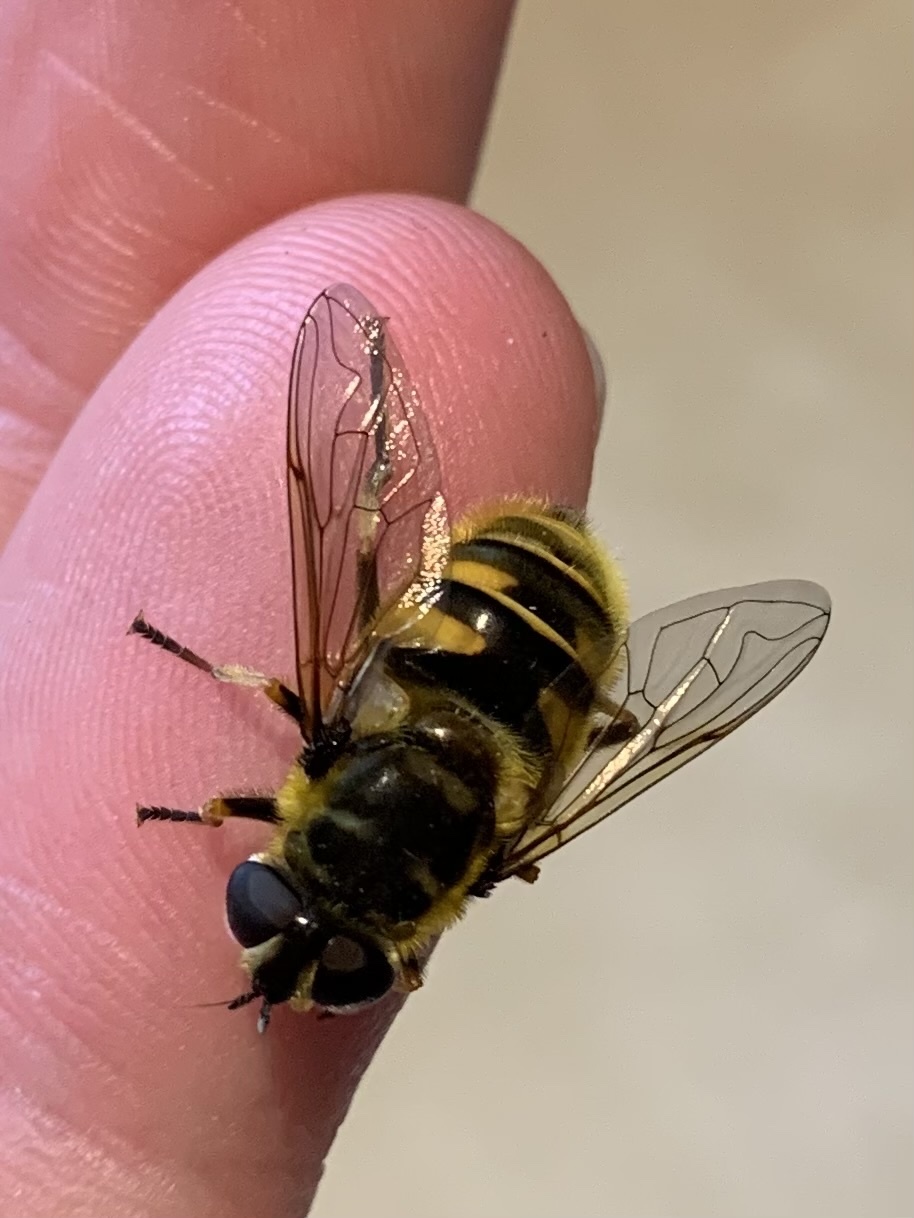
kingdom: Animalia
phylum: Arthropoda
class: Insecta
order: Diptera
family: Syrphidae
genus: Myathropa
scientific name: Myathropa florea
